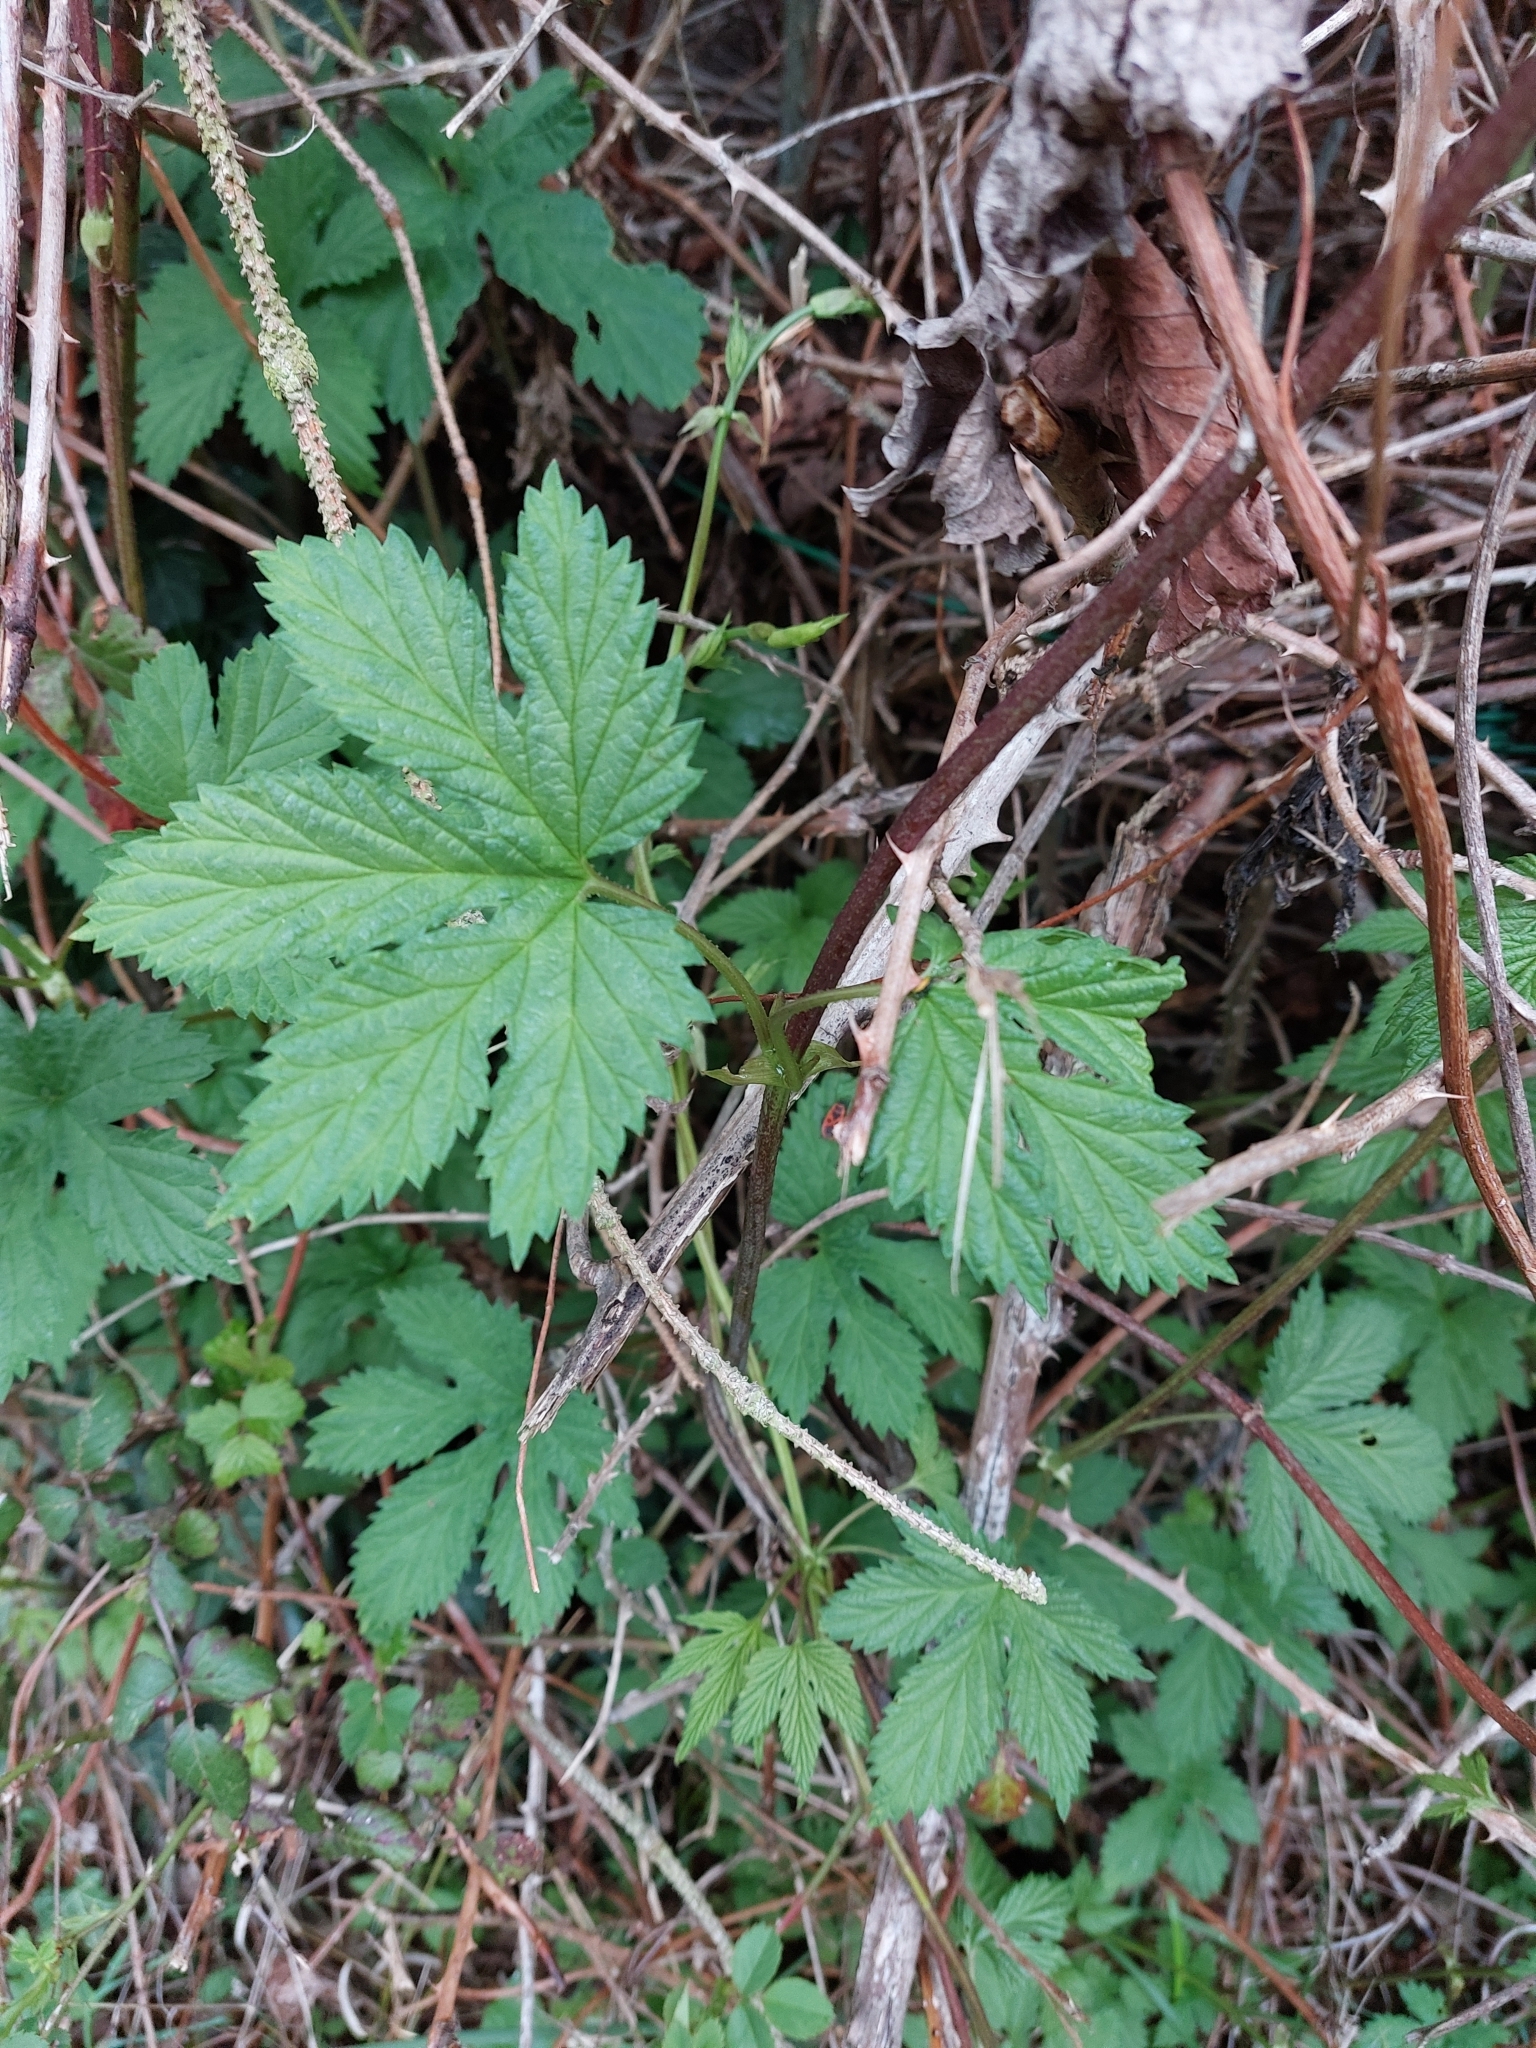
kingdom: Plantae
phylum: Tracheophyta
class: Magnoliopsida
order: Rosales
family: Cannabaceae
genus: Humulus
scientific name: Humulus lupulus
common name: Hop
